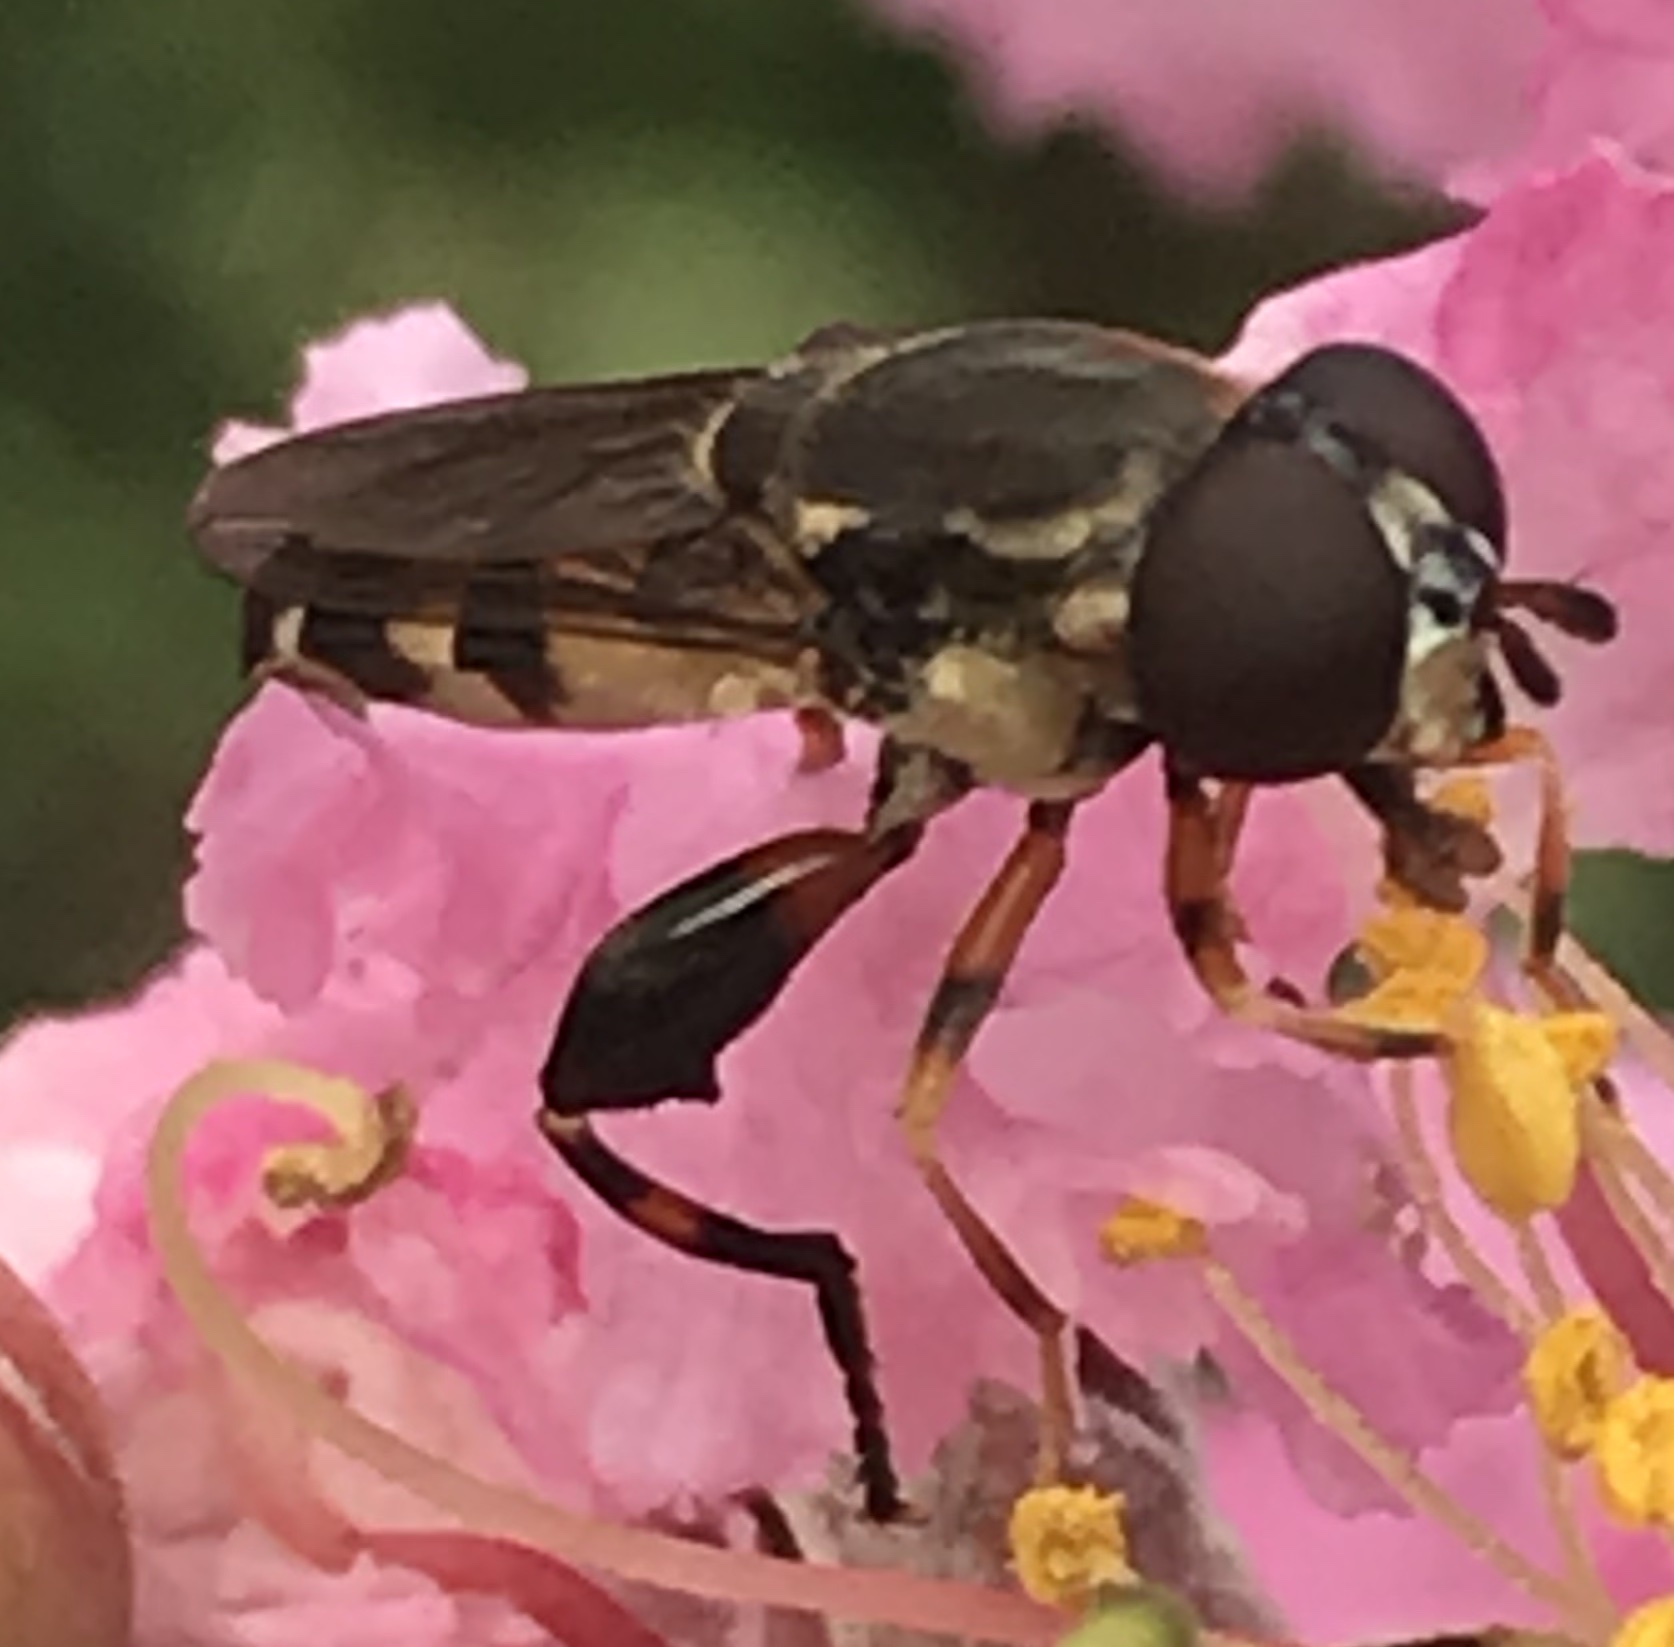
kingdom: Animalia
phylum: Arthropoda
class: Insecta
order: Diptera
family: Syrphidae
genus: Syritta
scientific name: Syritta pipiens
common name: Hover fly
